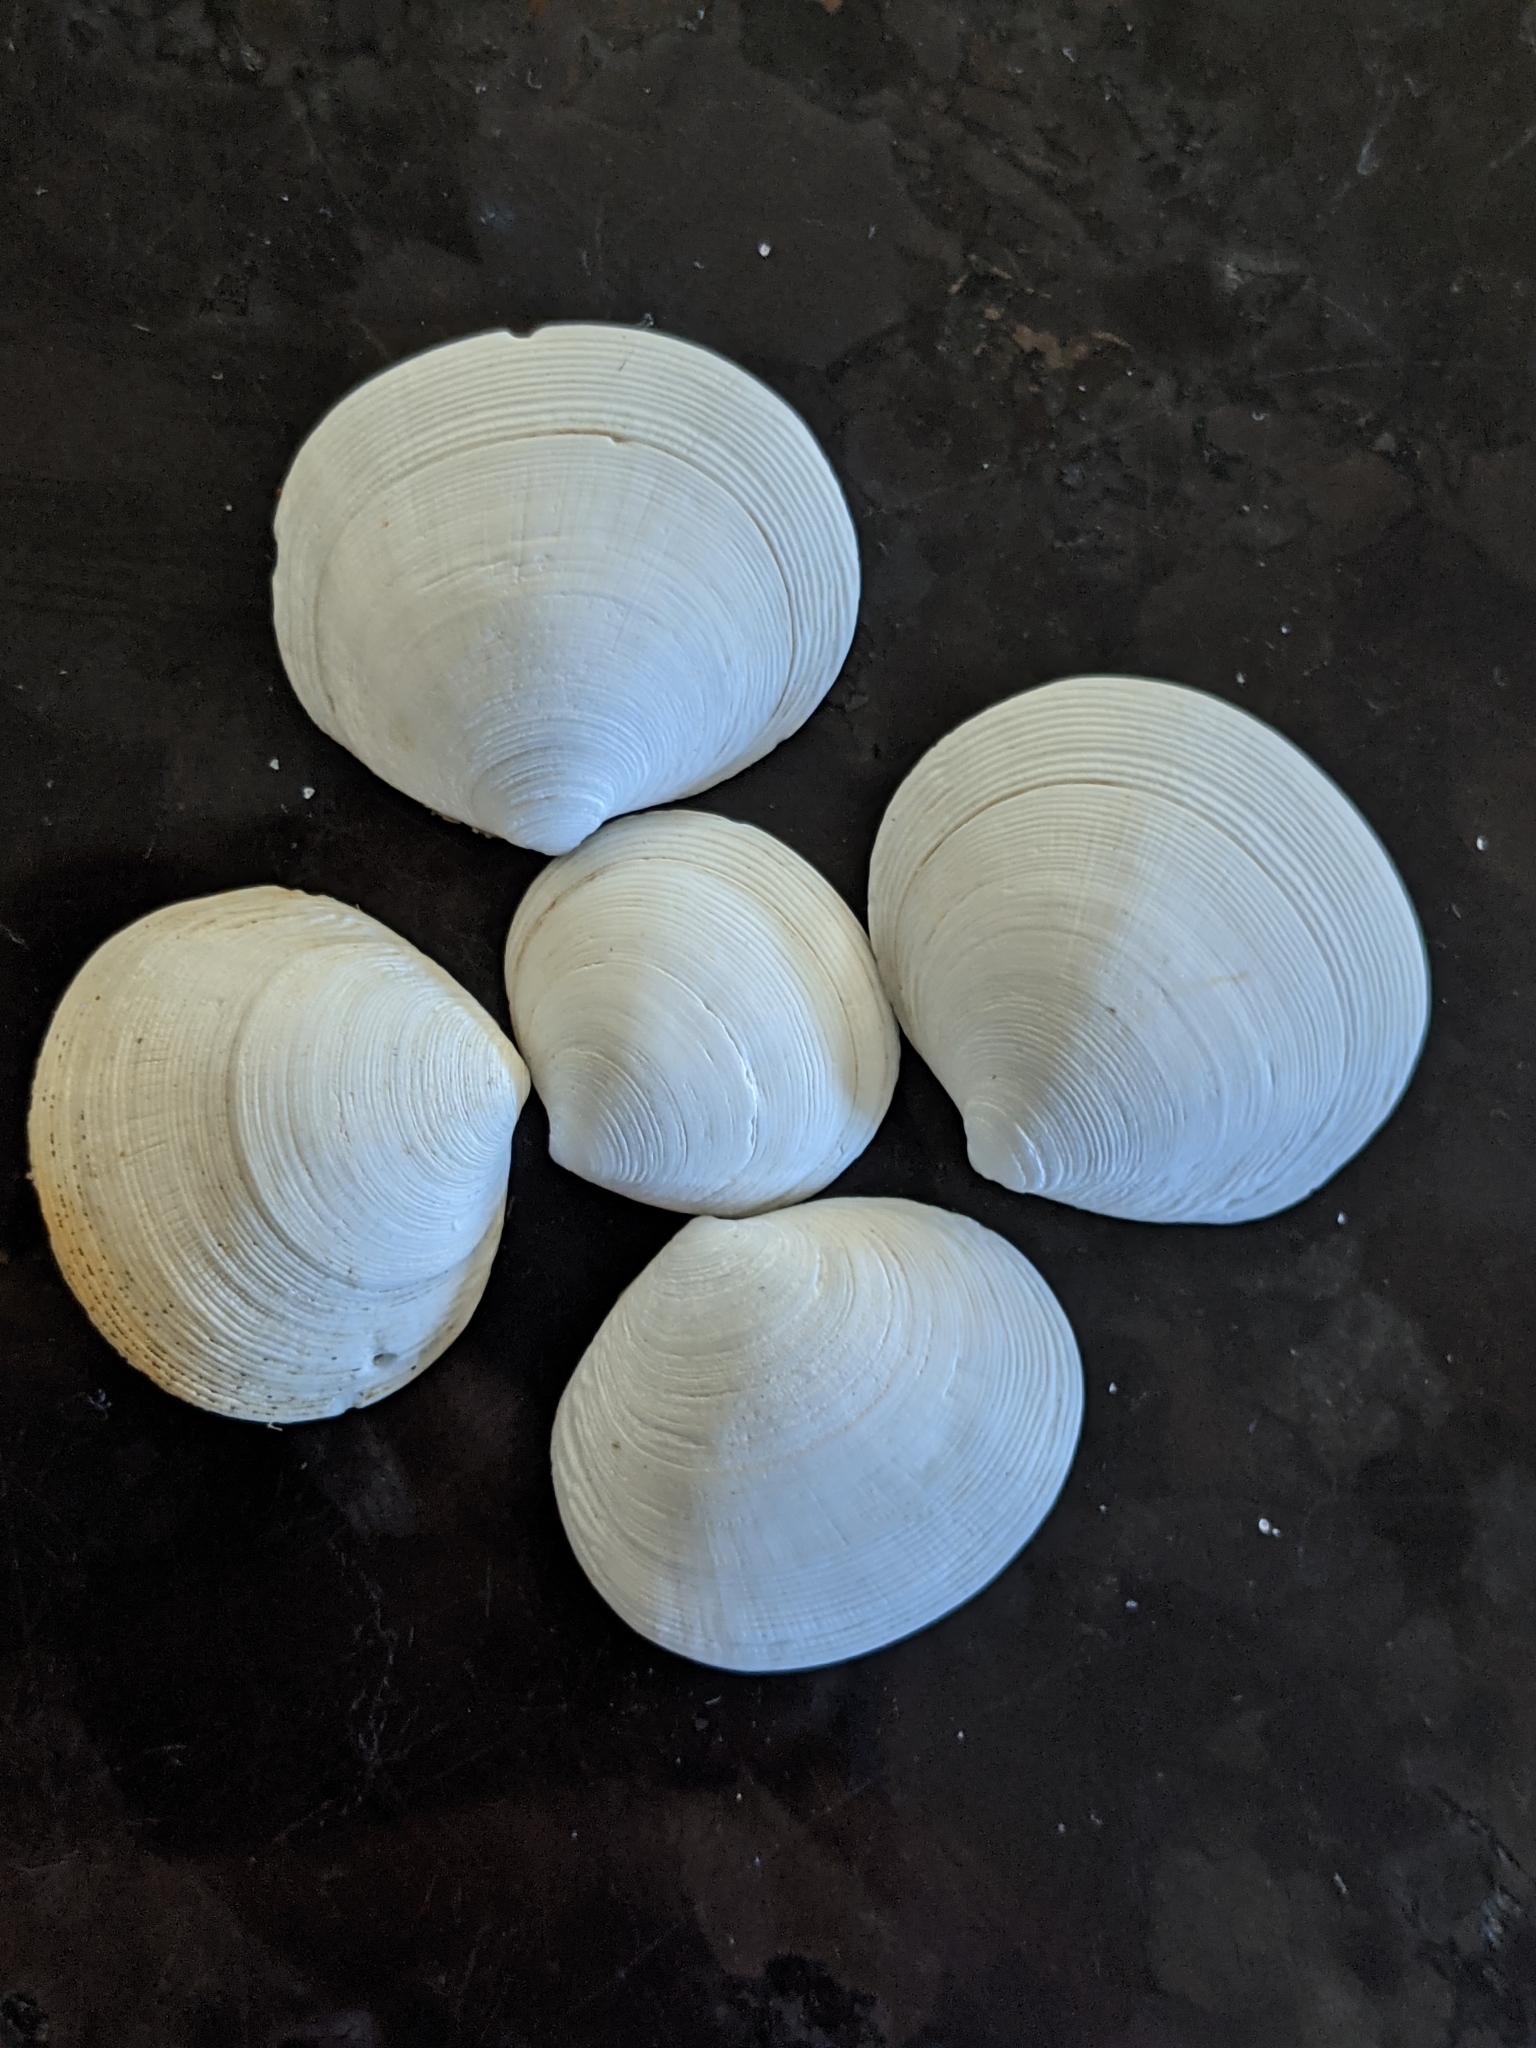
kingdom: Animalia
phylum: Mollusca
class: Bivalvia
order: Lucinida
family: Lucinidae
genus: Epilucina
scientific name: Epilucina californica
